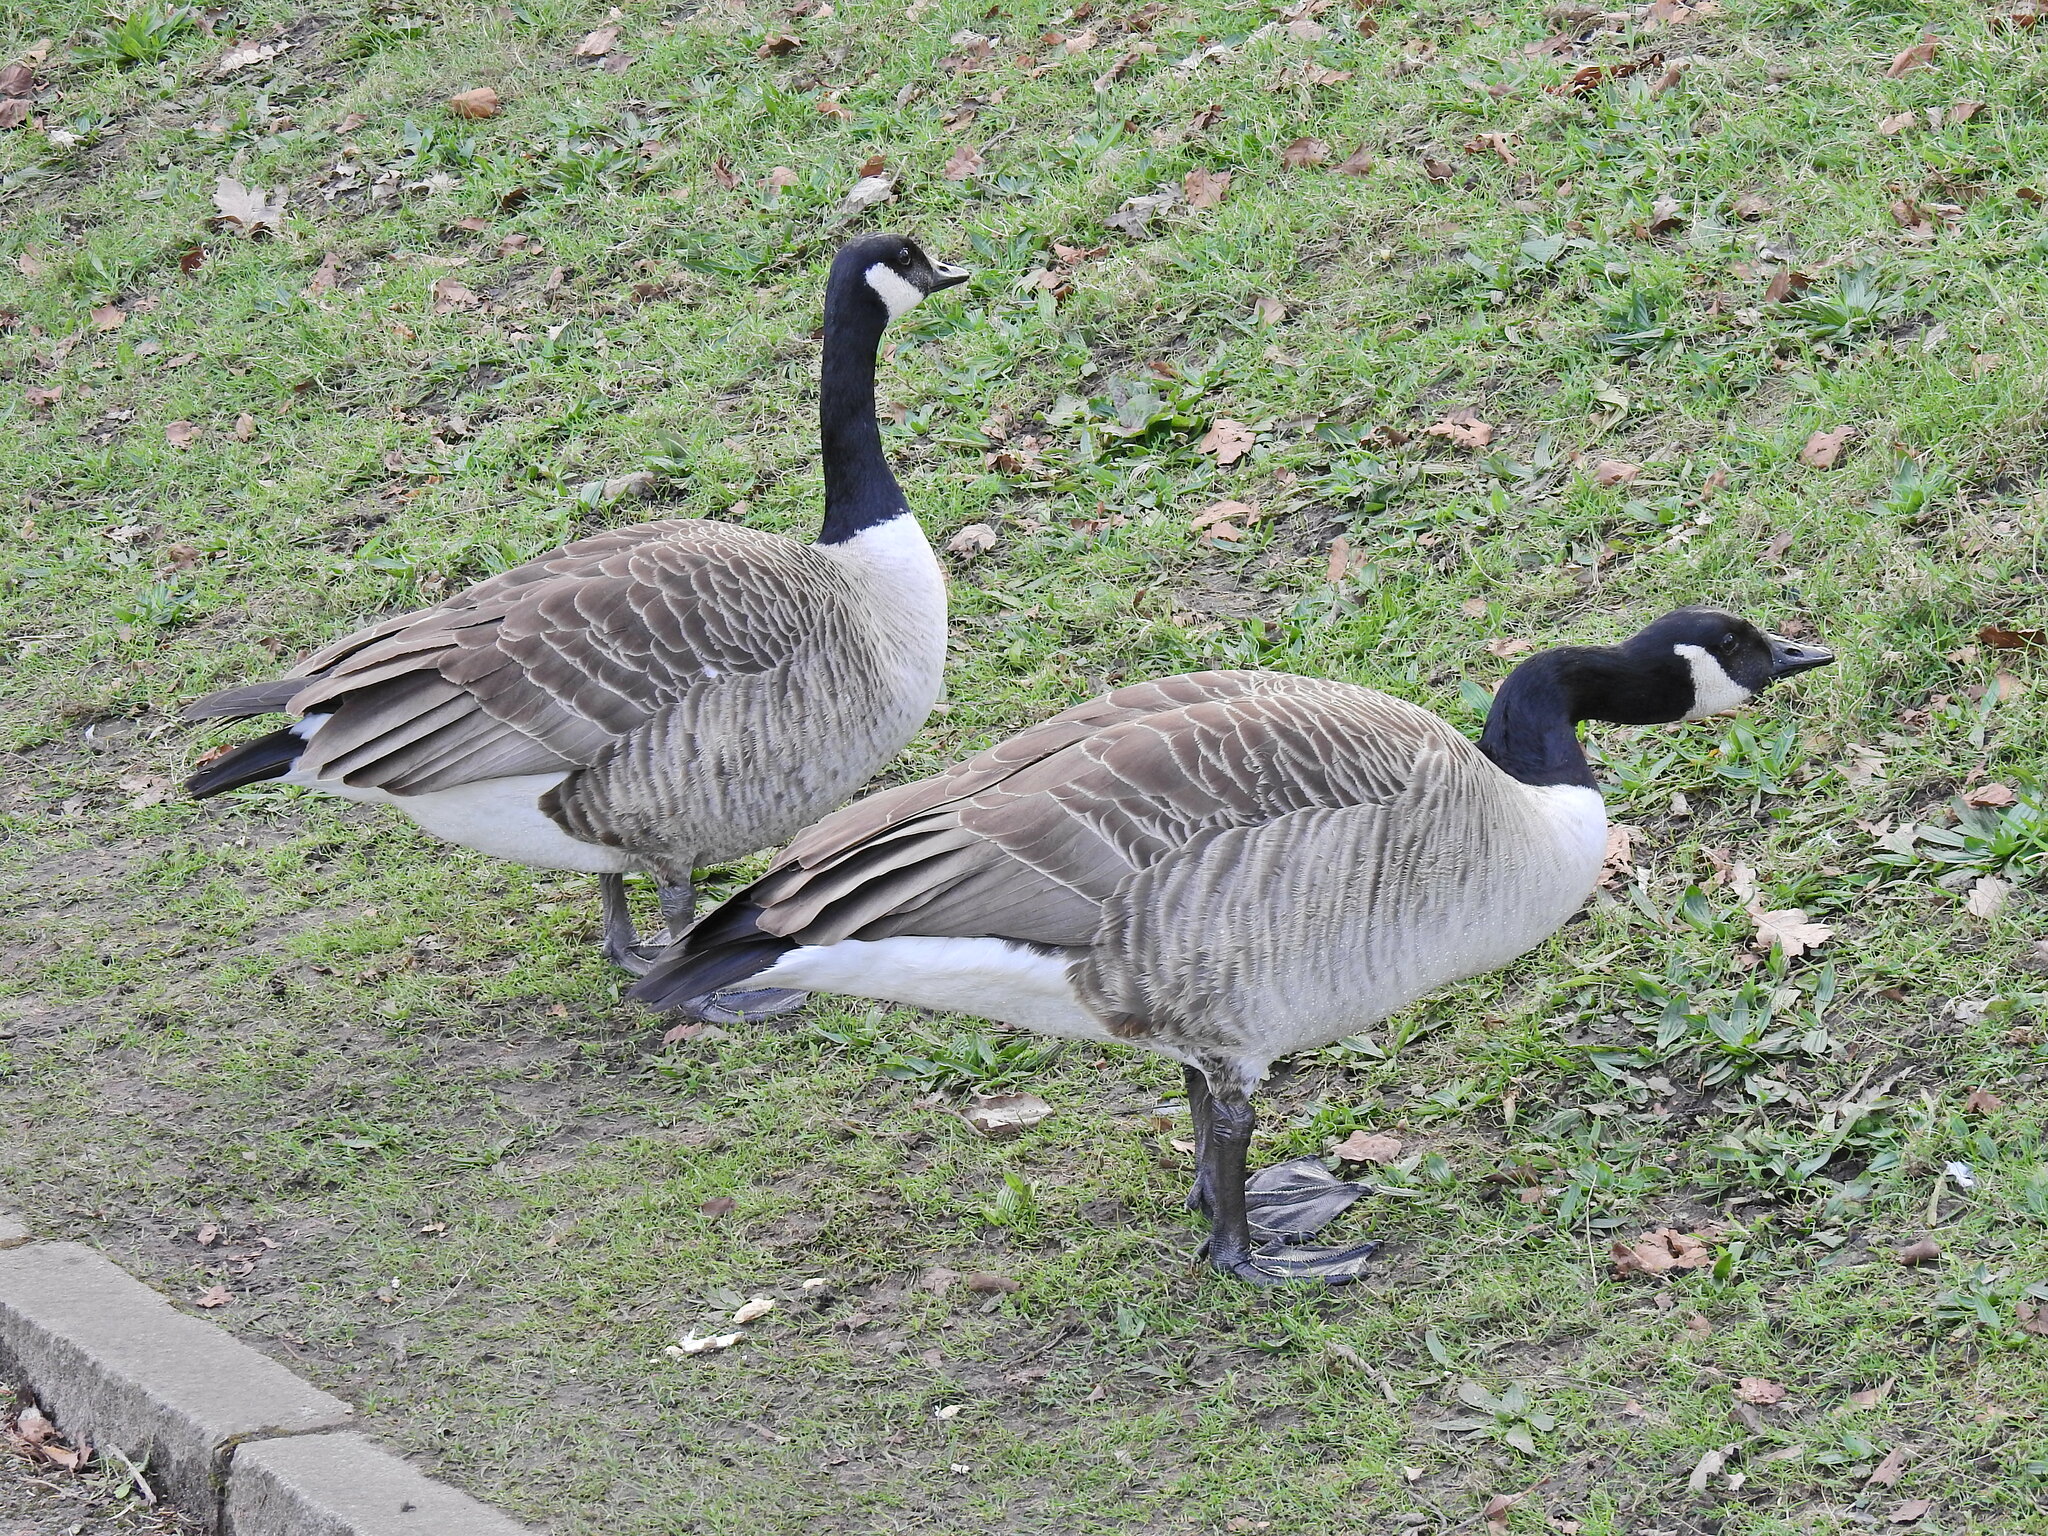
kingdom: Animalia
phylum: Chordata
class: Aves
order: Anseriformes
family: Anatidae
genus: Branta
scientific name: Branta canadensis
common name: Canada goose
